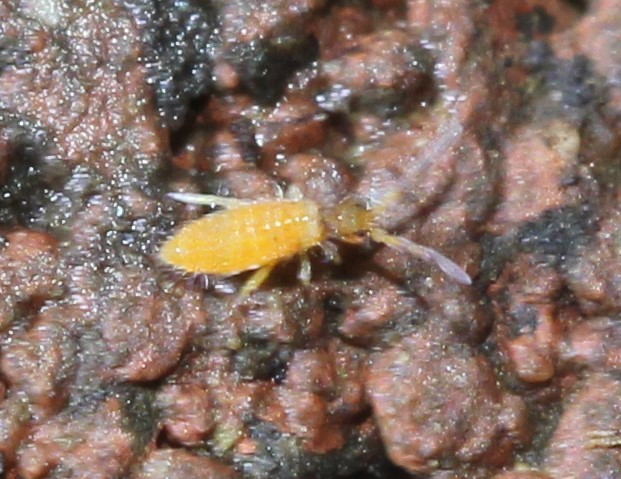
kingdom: Animalia
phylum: Arthropoda
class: Collembola
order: Entomobryomorpha
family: Entomobryidae
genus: Entomobrya
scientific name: Entomobrya atrocincta
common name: Springtail
